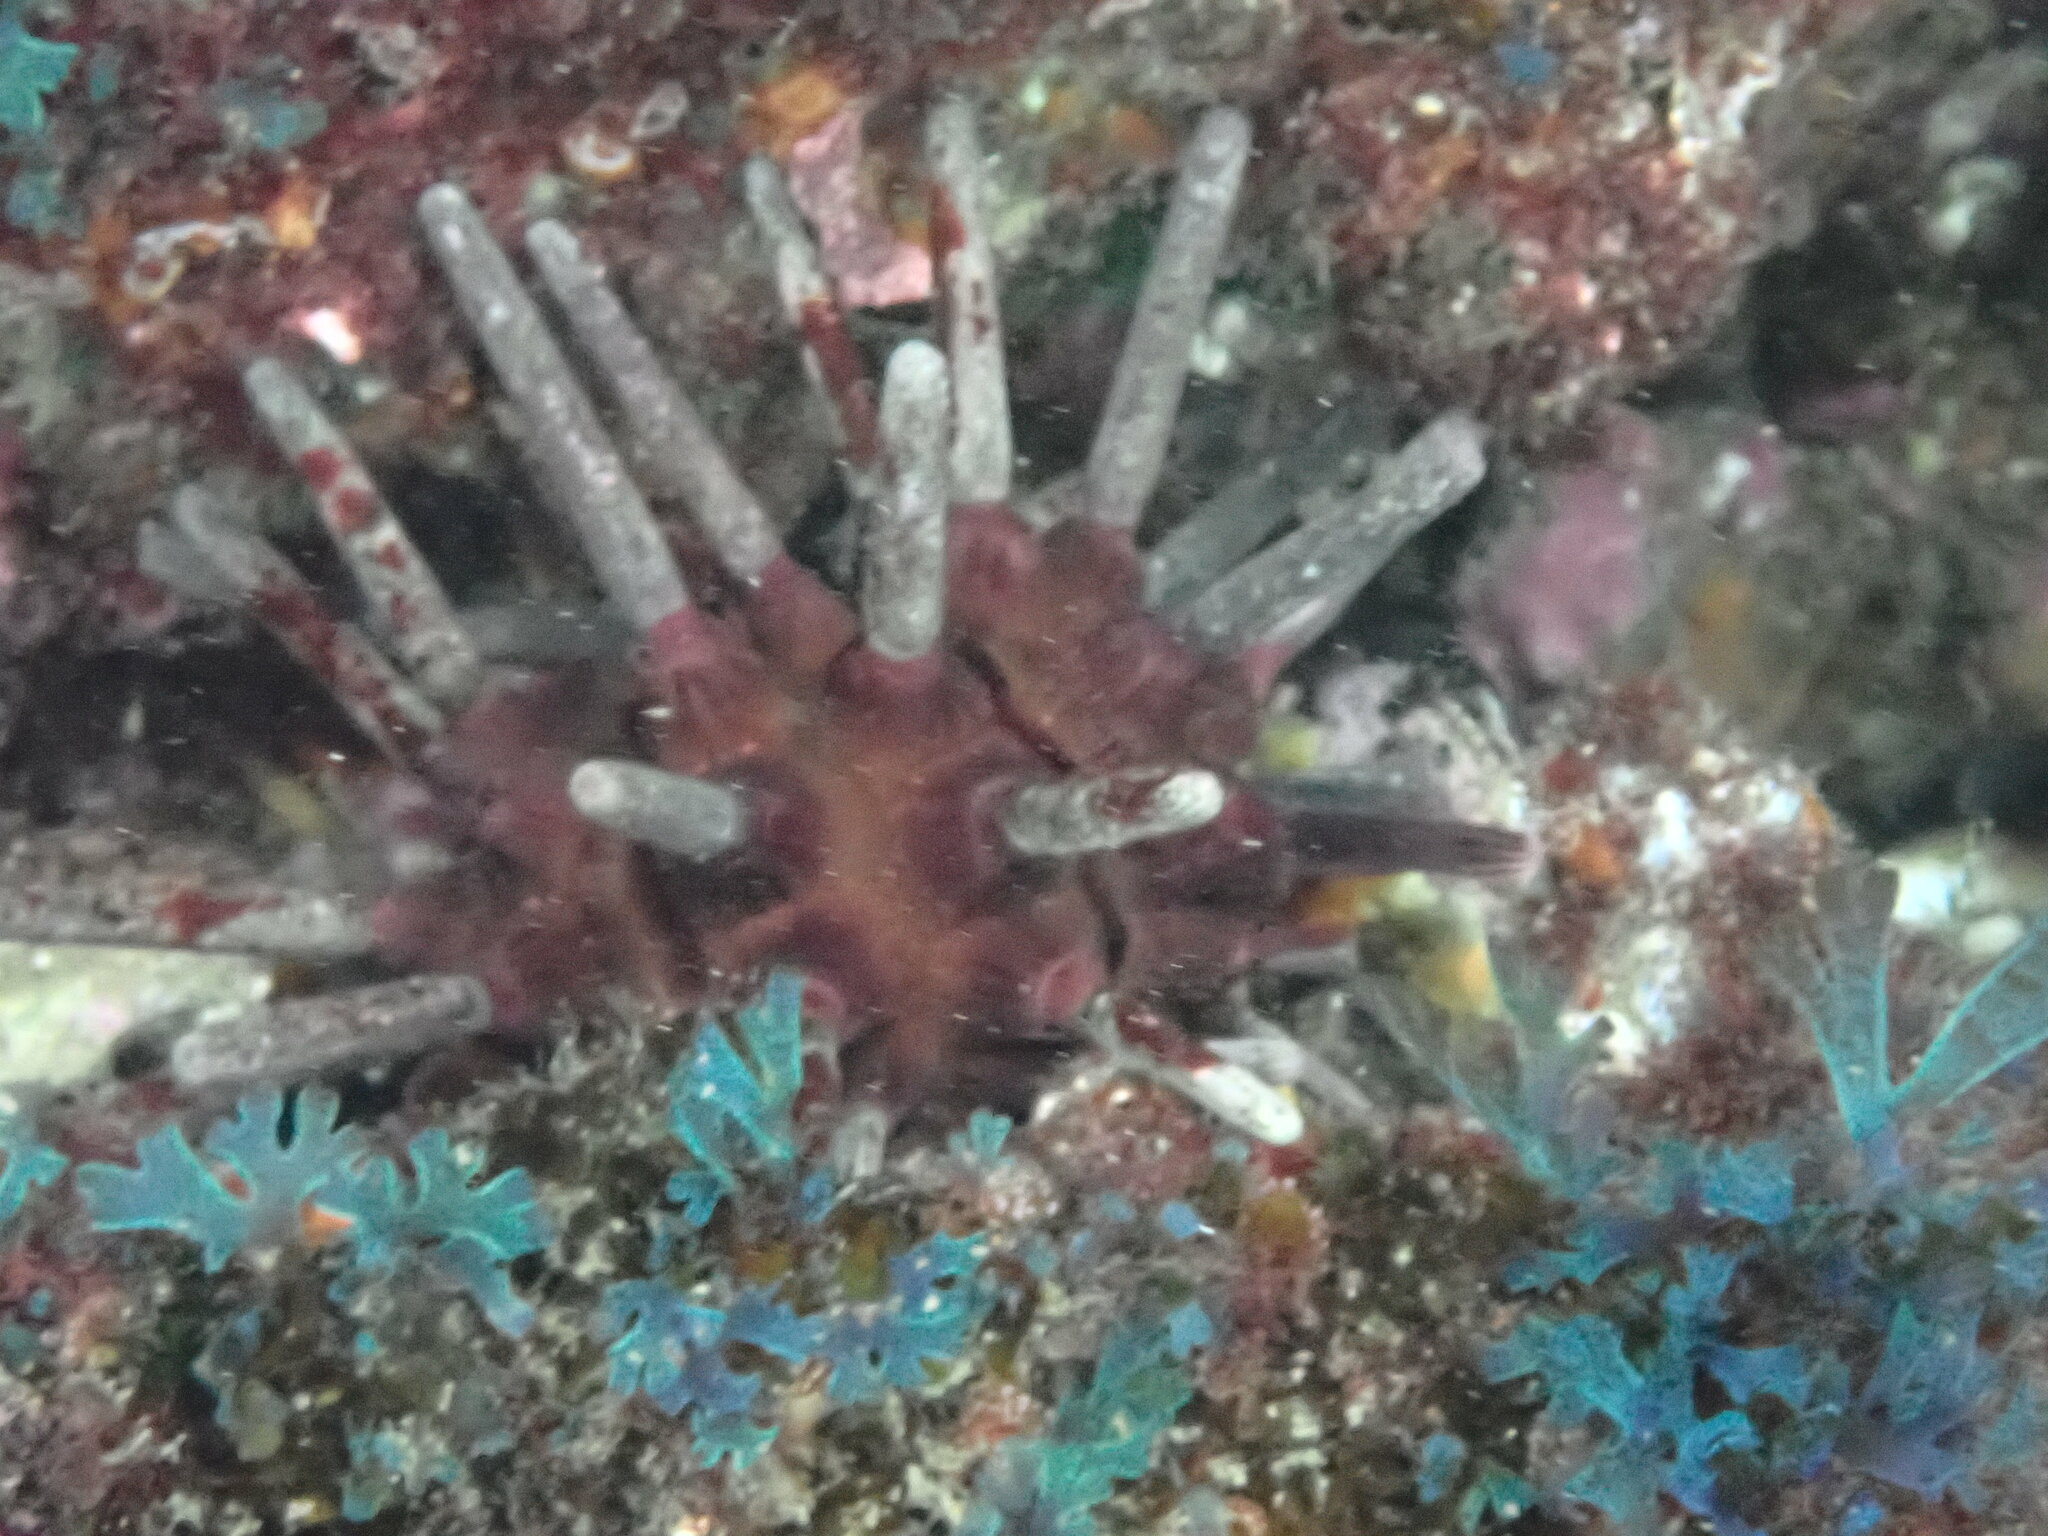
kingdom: Animalia
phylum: Echinodermata
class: Echinoidea
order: Cidaroida
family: Cidaridae
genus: Phyllacanthus
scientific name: Phyllacanthus parvispinus
